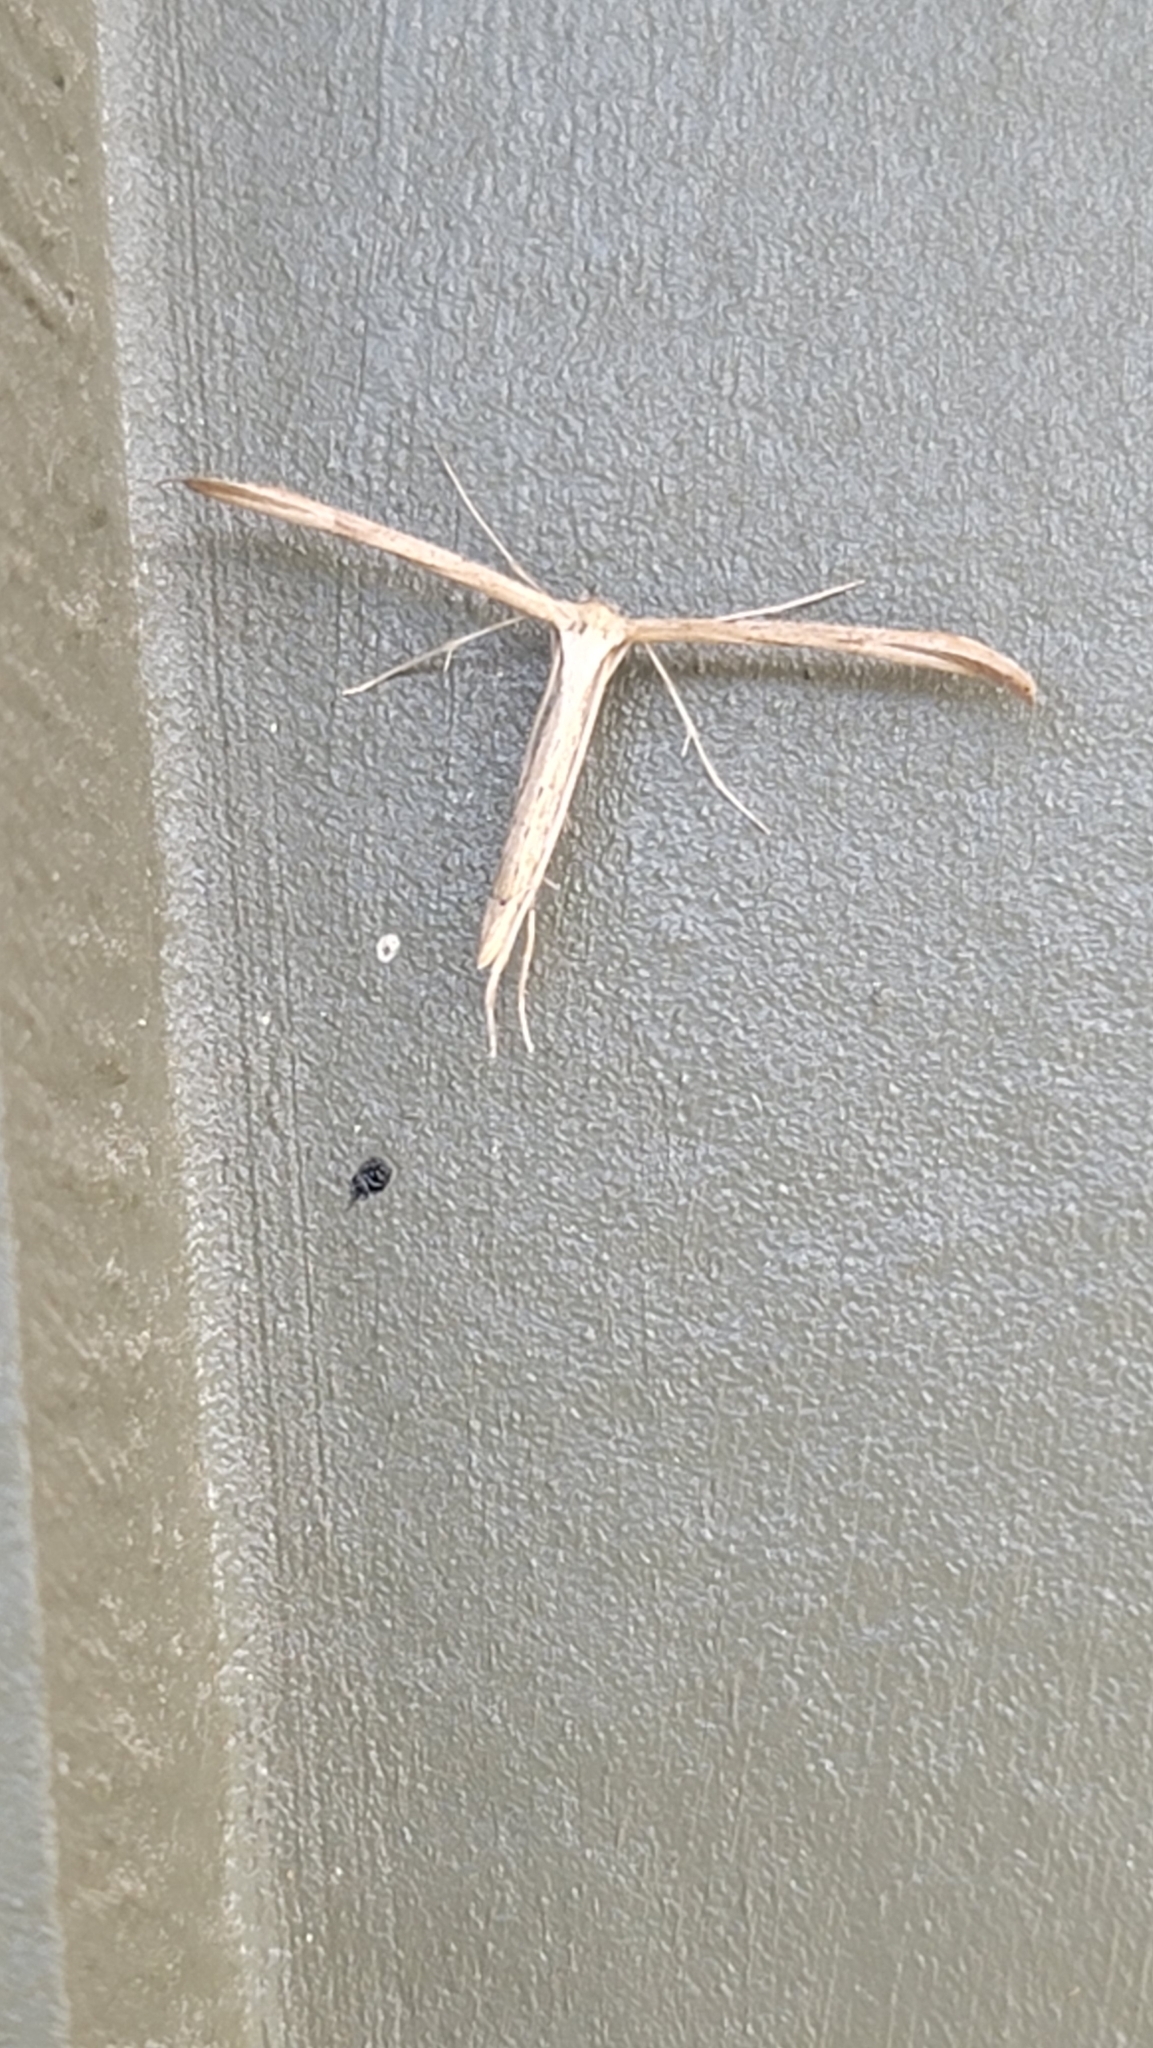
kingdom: Animalia
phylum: Arthropoda
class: Insecta
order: Lepidoptera
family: Pterophoridae
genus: Emmelina
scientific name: Emmelina monodactyla
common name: Common plume
